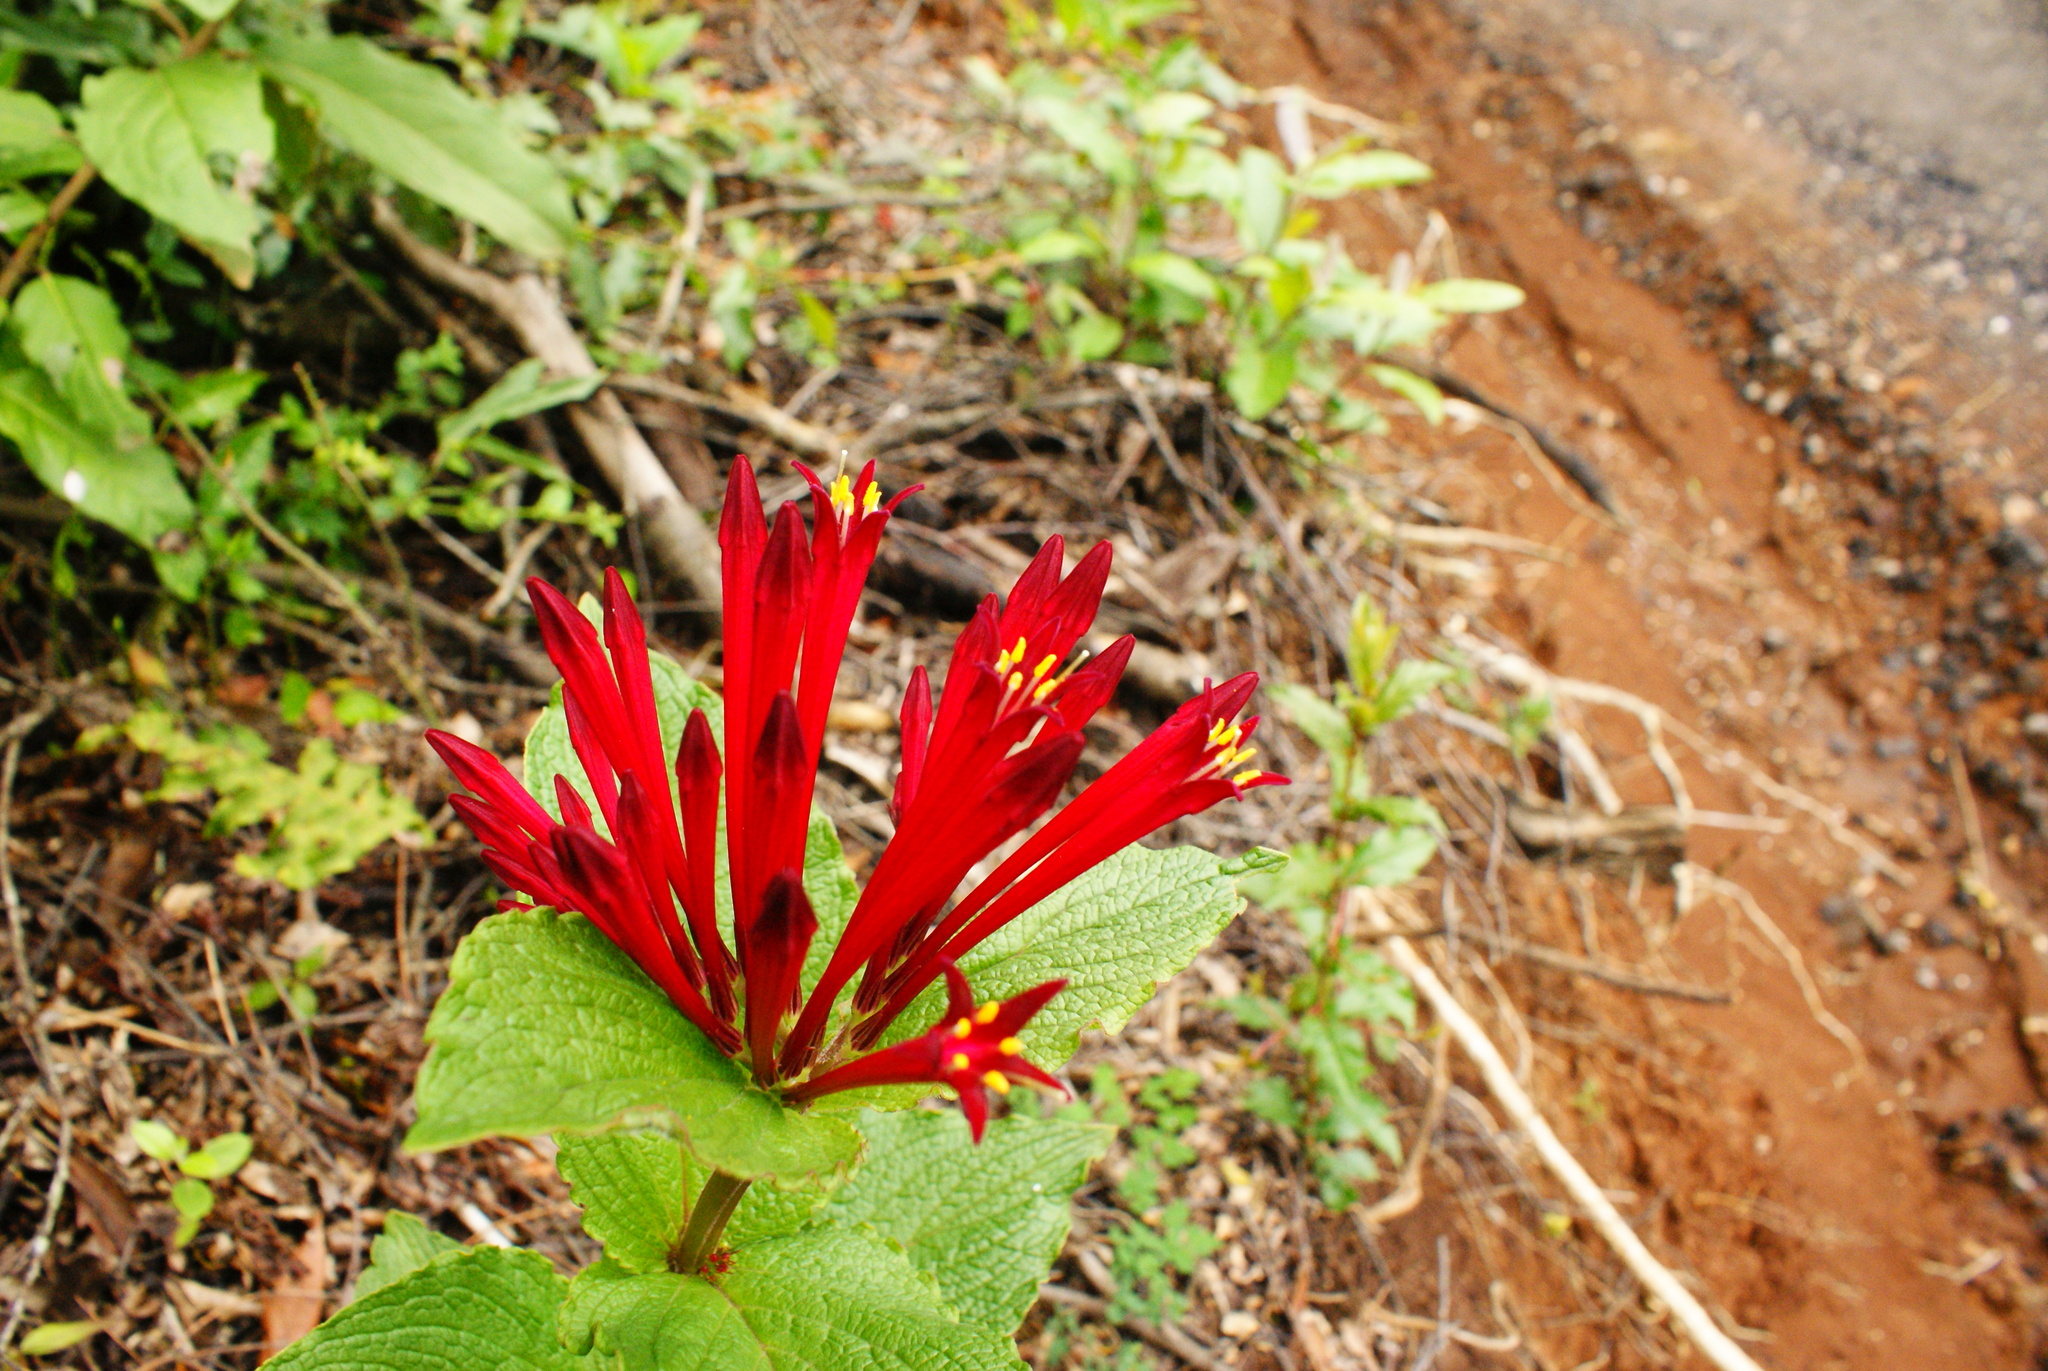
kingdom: Plantae
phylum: Tracheophyta
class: Magnoliopsida
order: Gentianales
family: Loganiaceae
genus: Spigelia
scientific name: Spigelia longiflora
